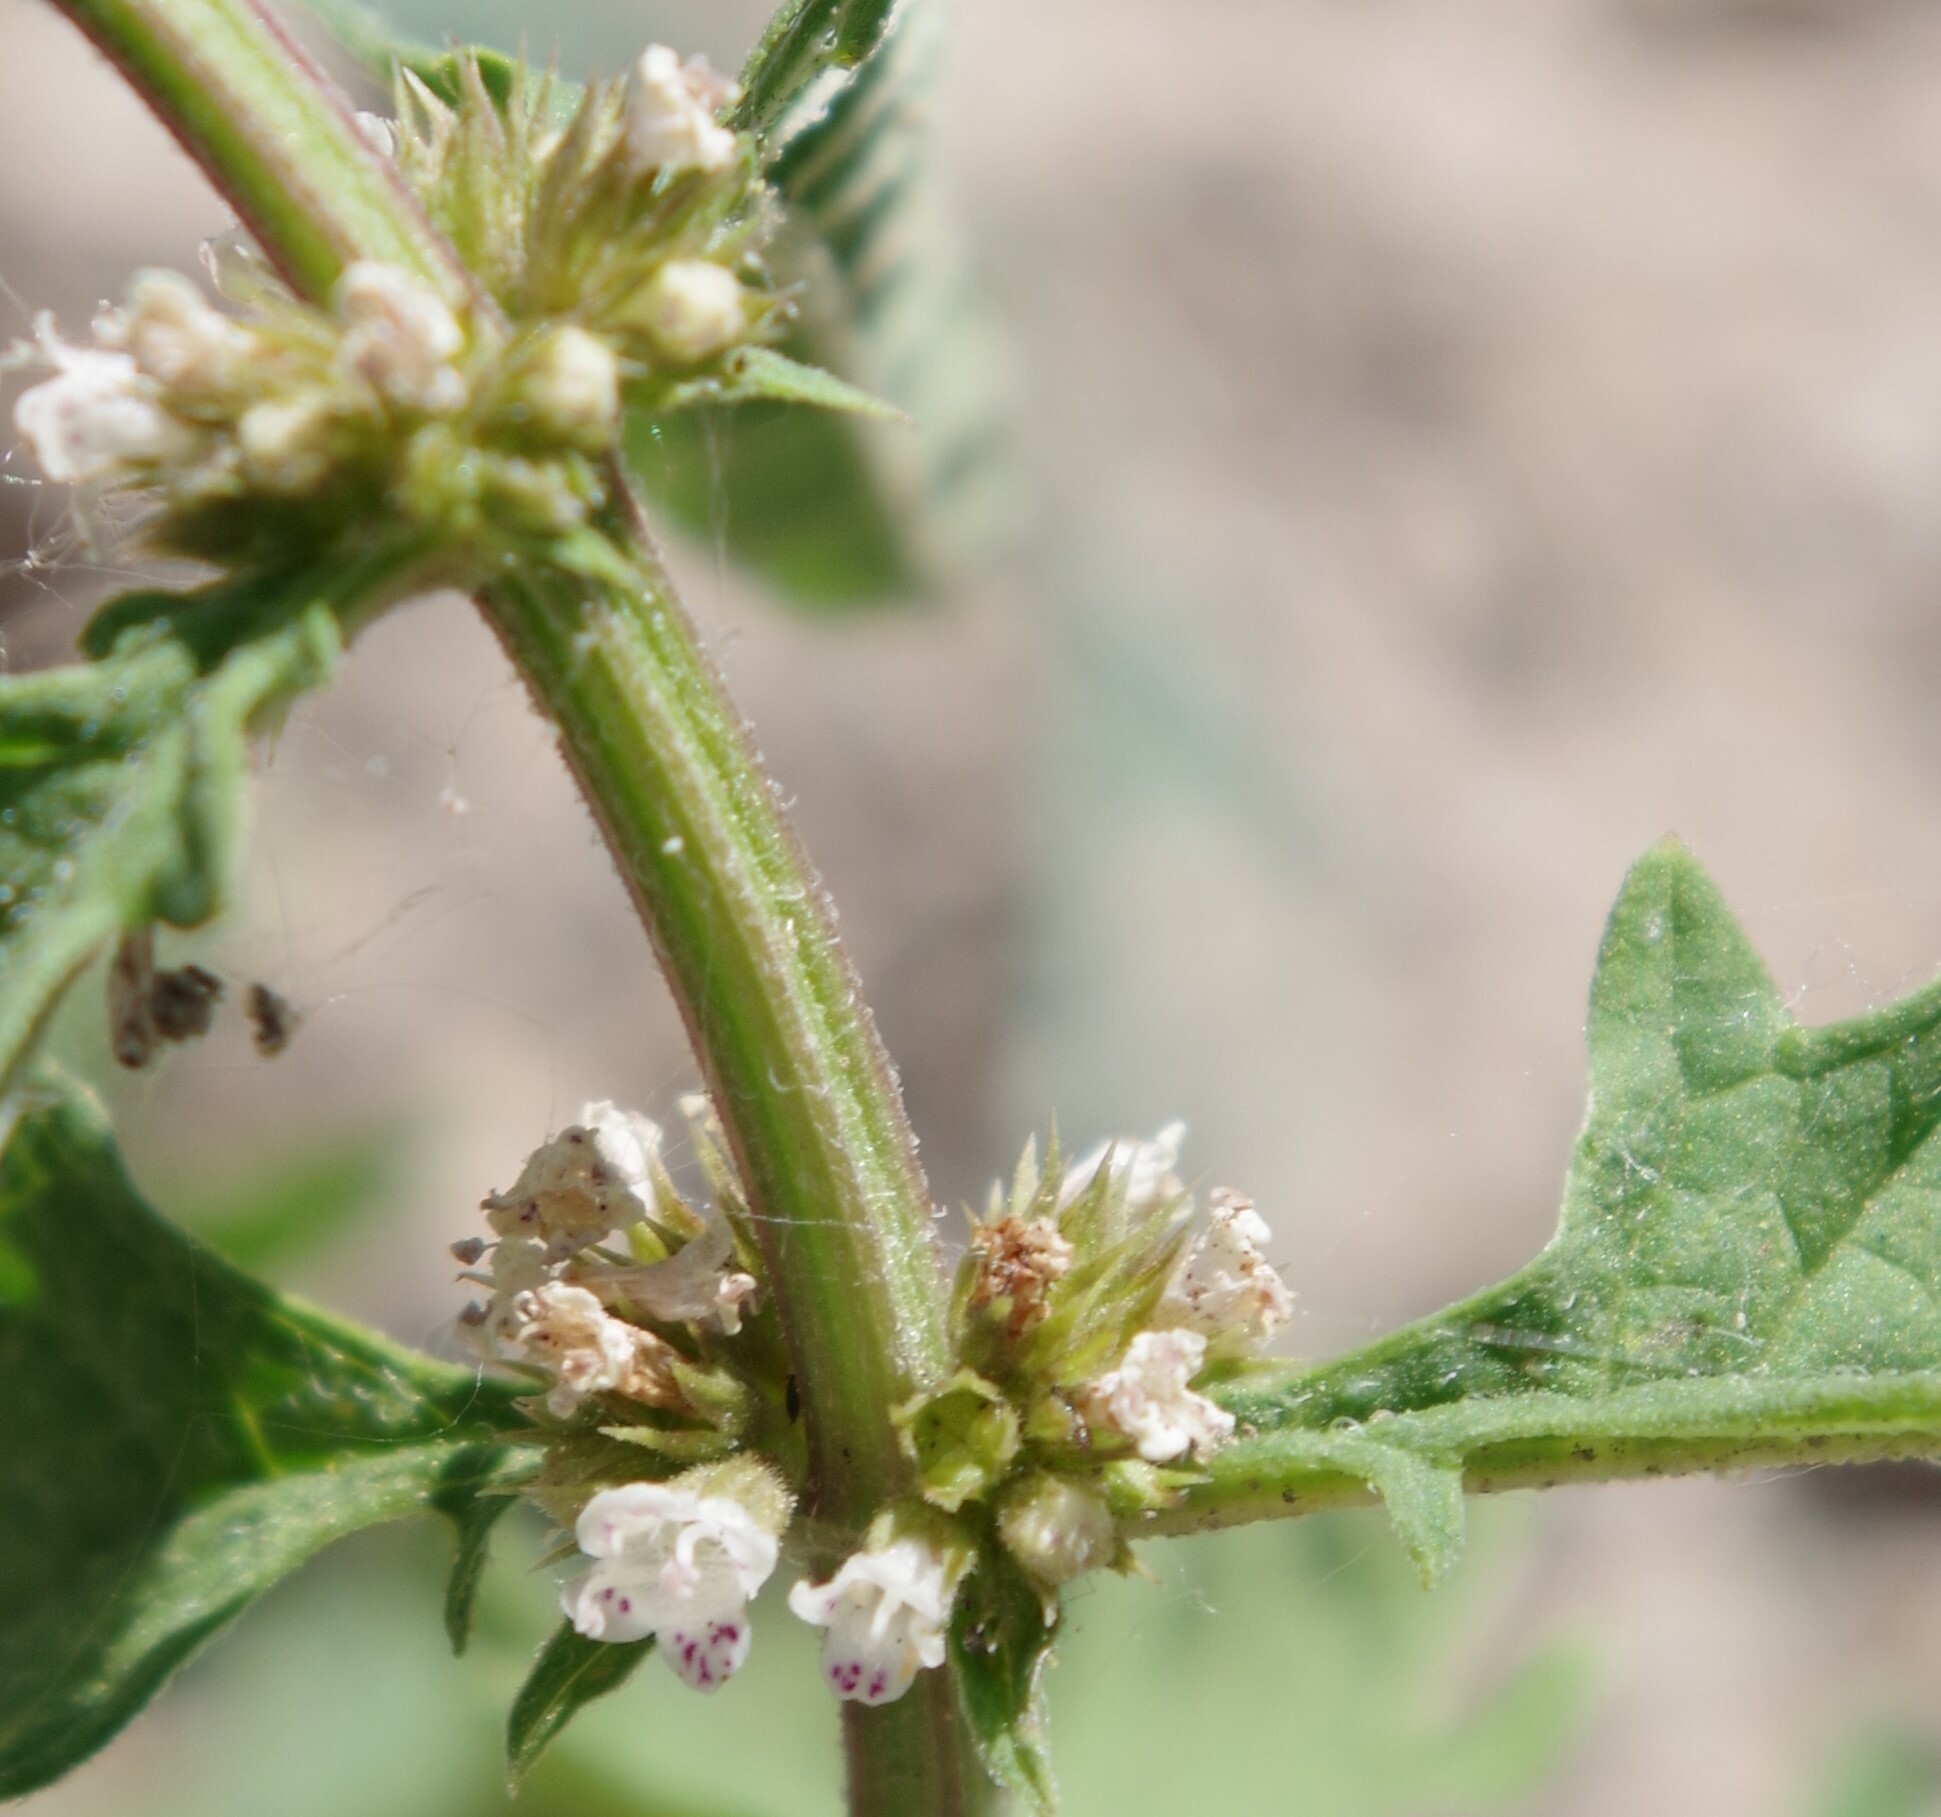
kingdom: Plantae
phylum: Tracheophyta
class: Magnoliopsida
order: Lamiales
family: Lamiaceae
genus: Lycopus
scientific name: Lycopus europaeus
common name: European bugleweed
